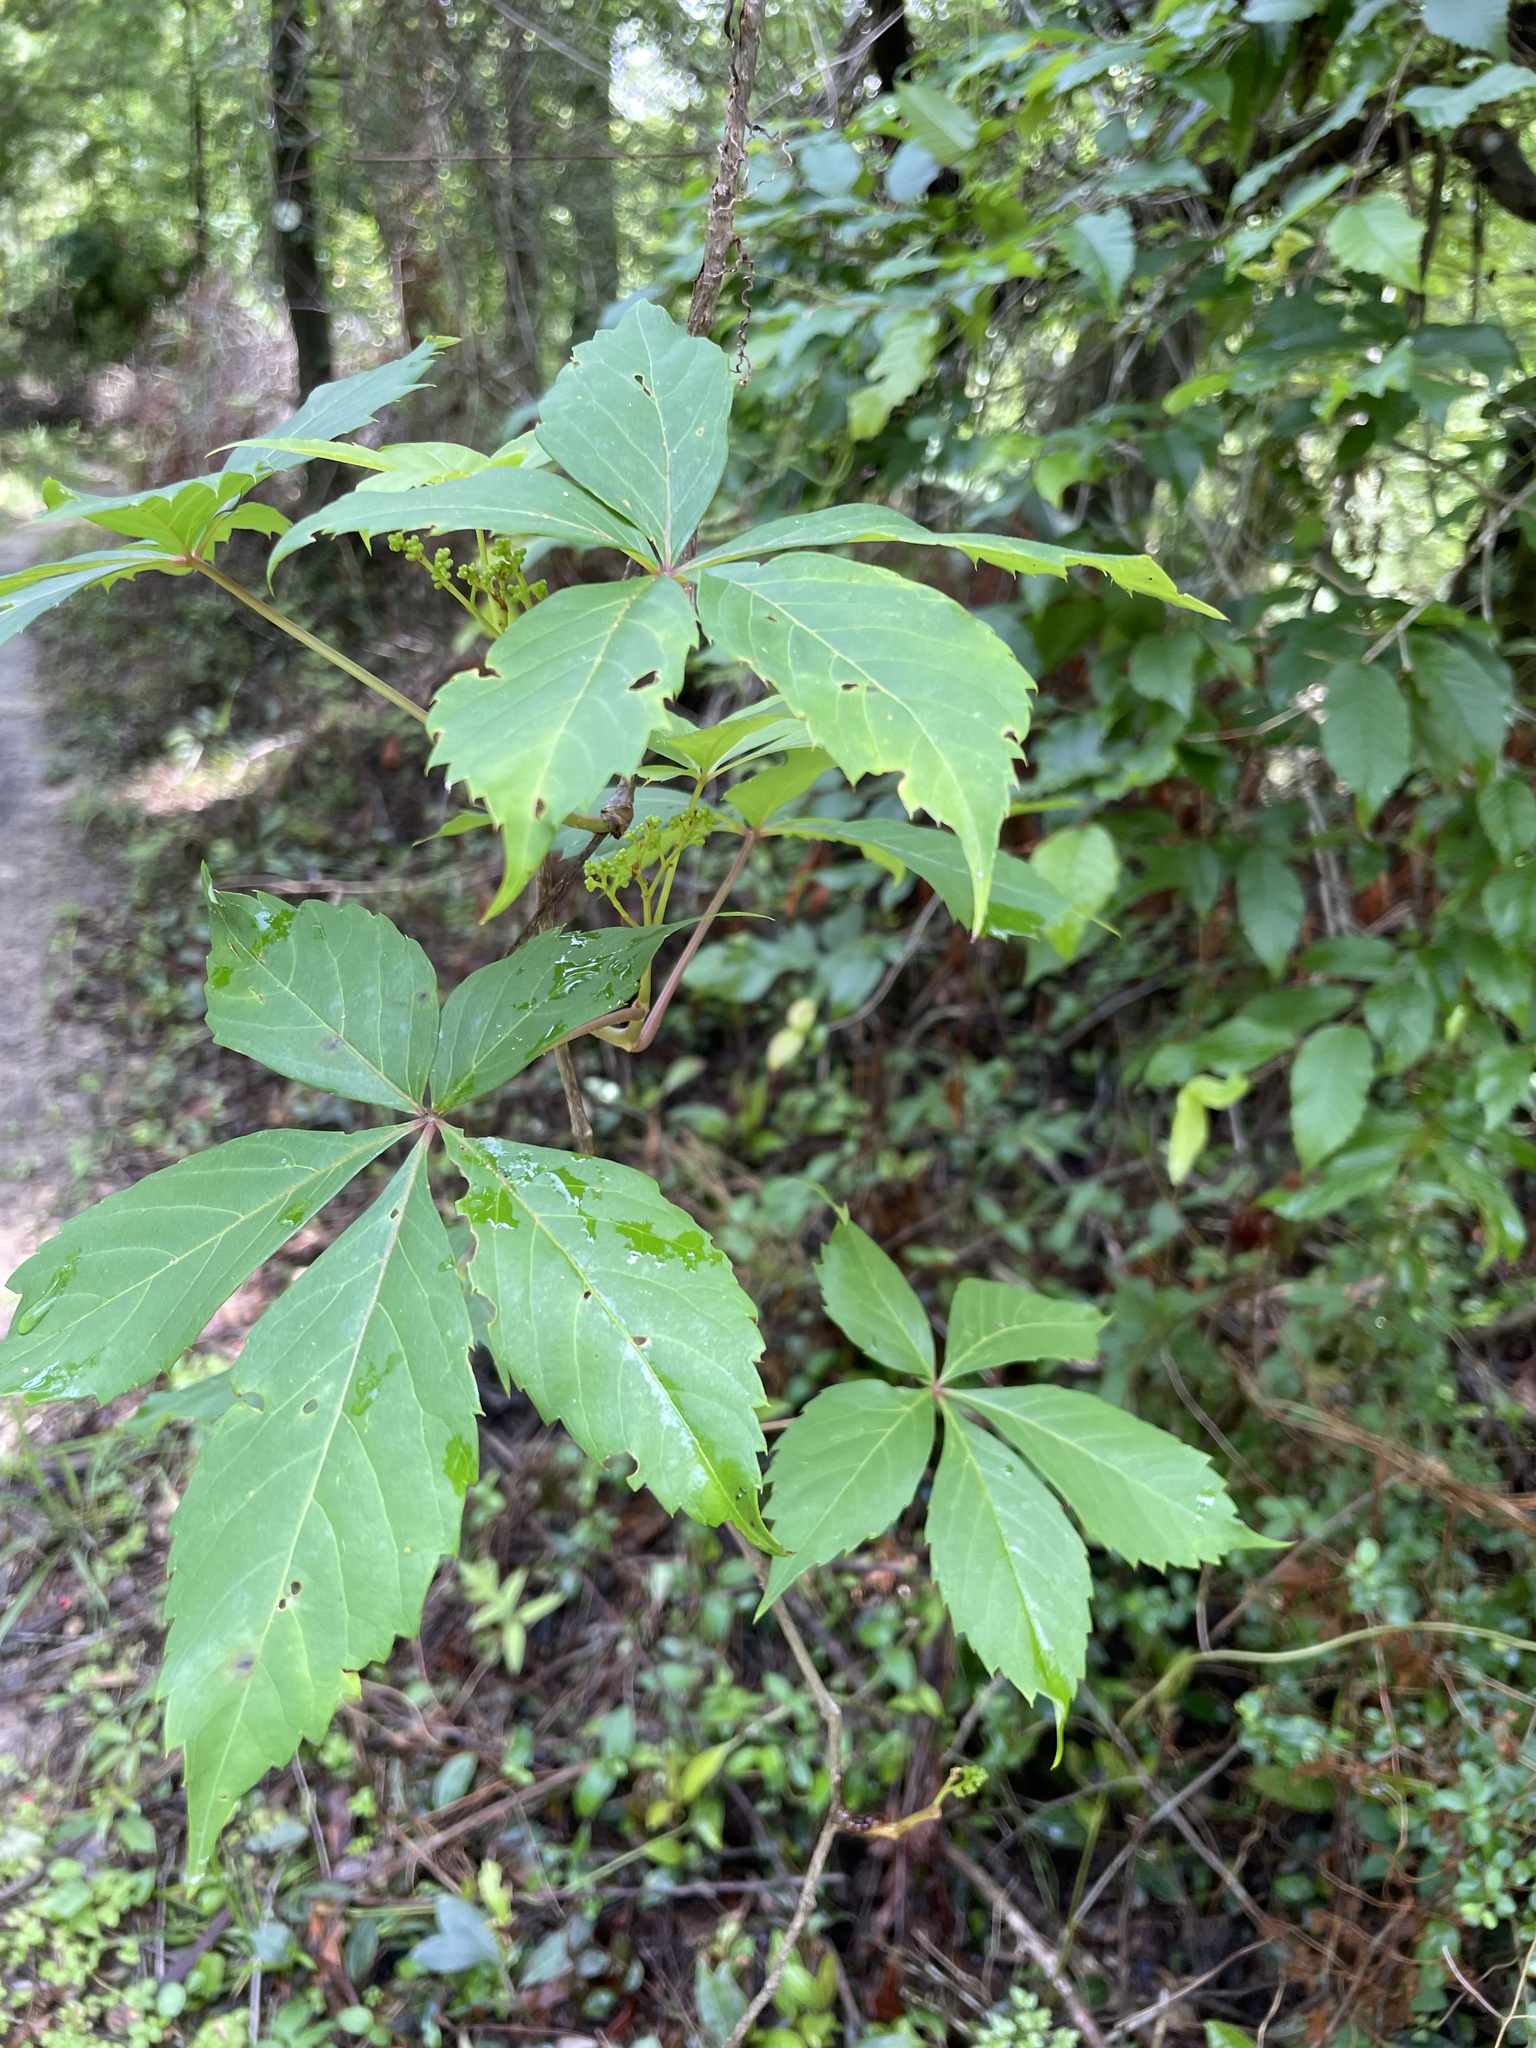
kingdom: Plantae
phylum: Tracheophyta
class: Magnoliopsida
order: Vitales
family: Vitaceae
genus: Parthenocissus
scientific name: Parthenocissus quinquefolia
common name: Virginia-creeper
